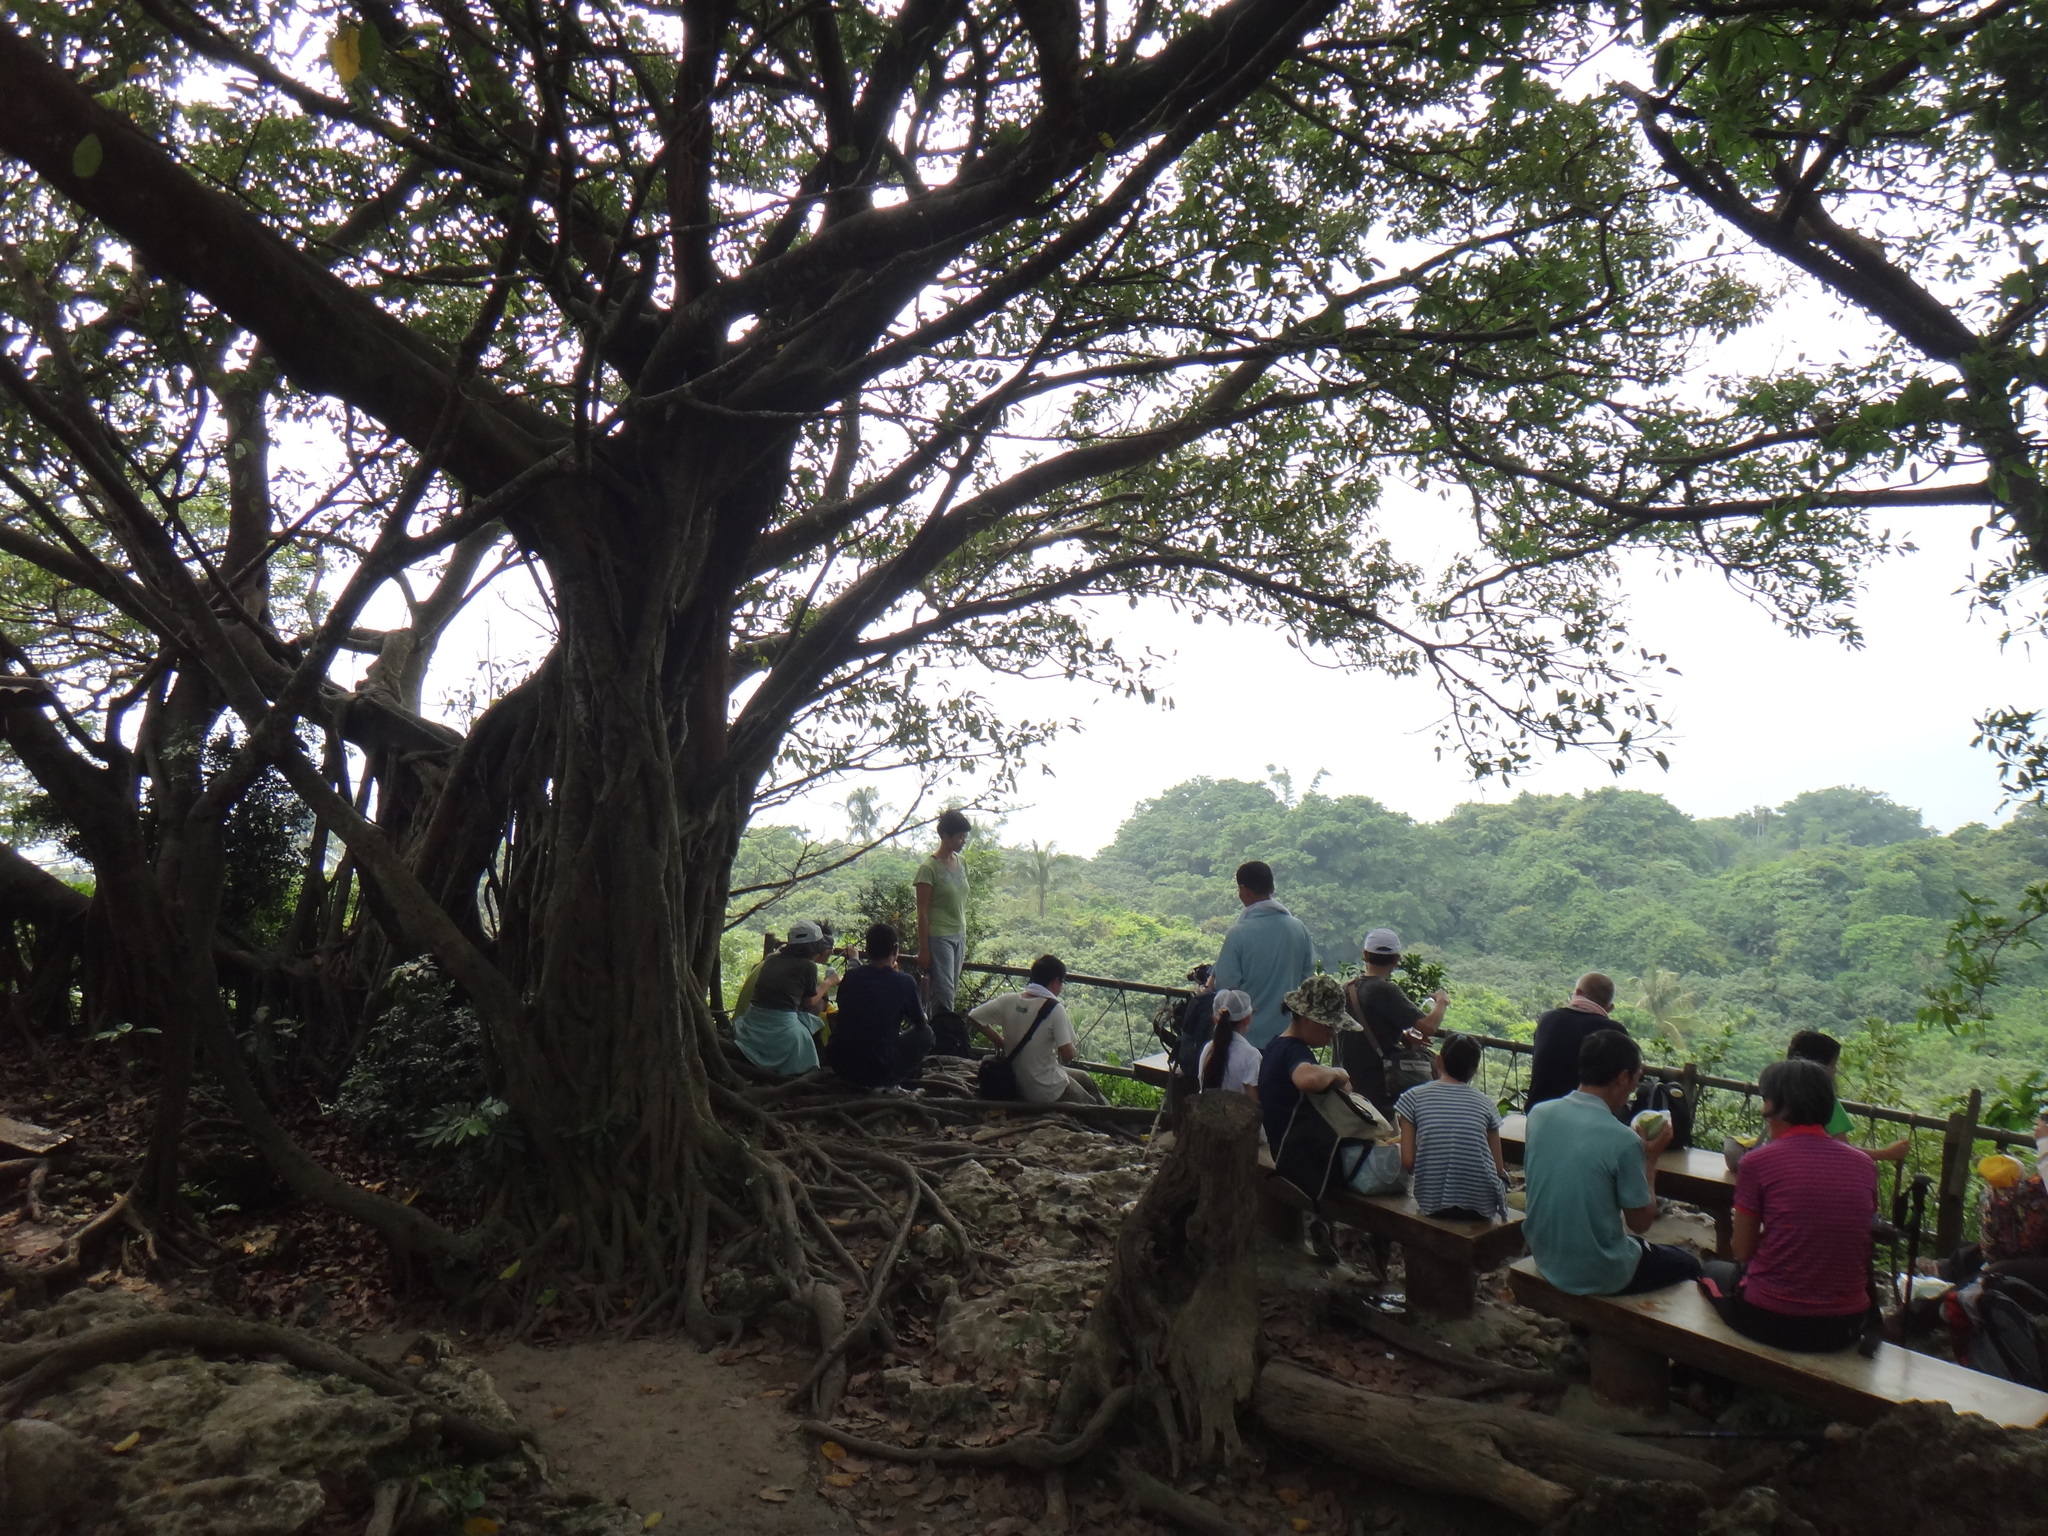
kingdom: Plantae
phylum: Tracheophyta
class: Magnoliopsida
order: Rosales
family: Moraceae
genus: Ficus
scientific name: Ficus caulocarpa
